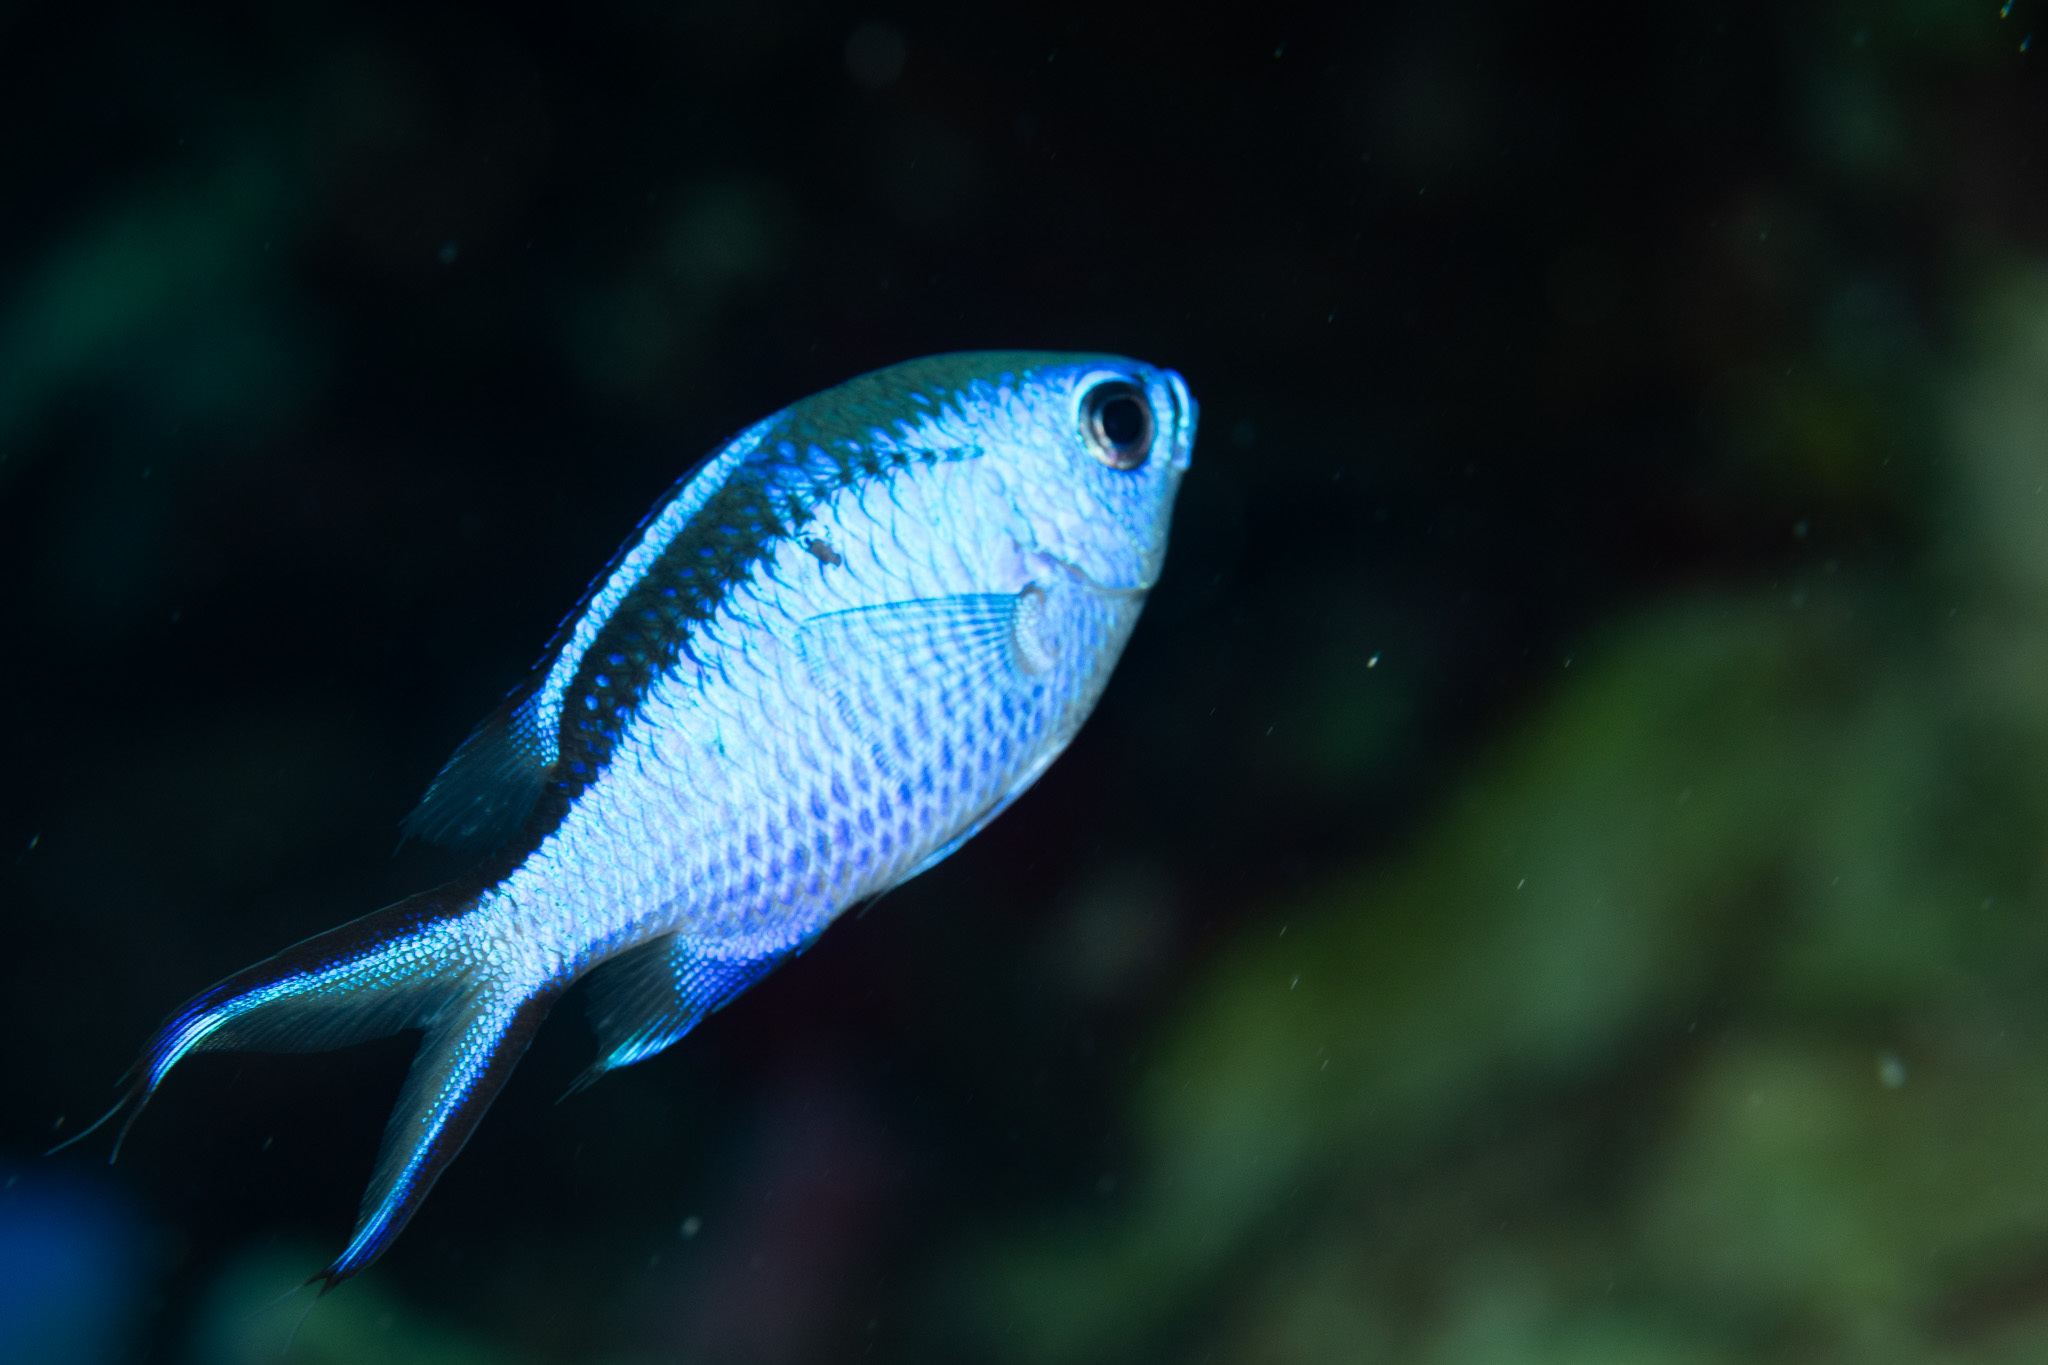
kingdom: Animalia
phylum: Chordata
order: Perciformes
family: Pomacentridae
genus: Chromis
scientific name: Chromis cyanea
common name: Blue chromis
